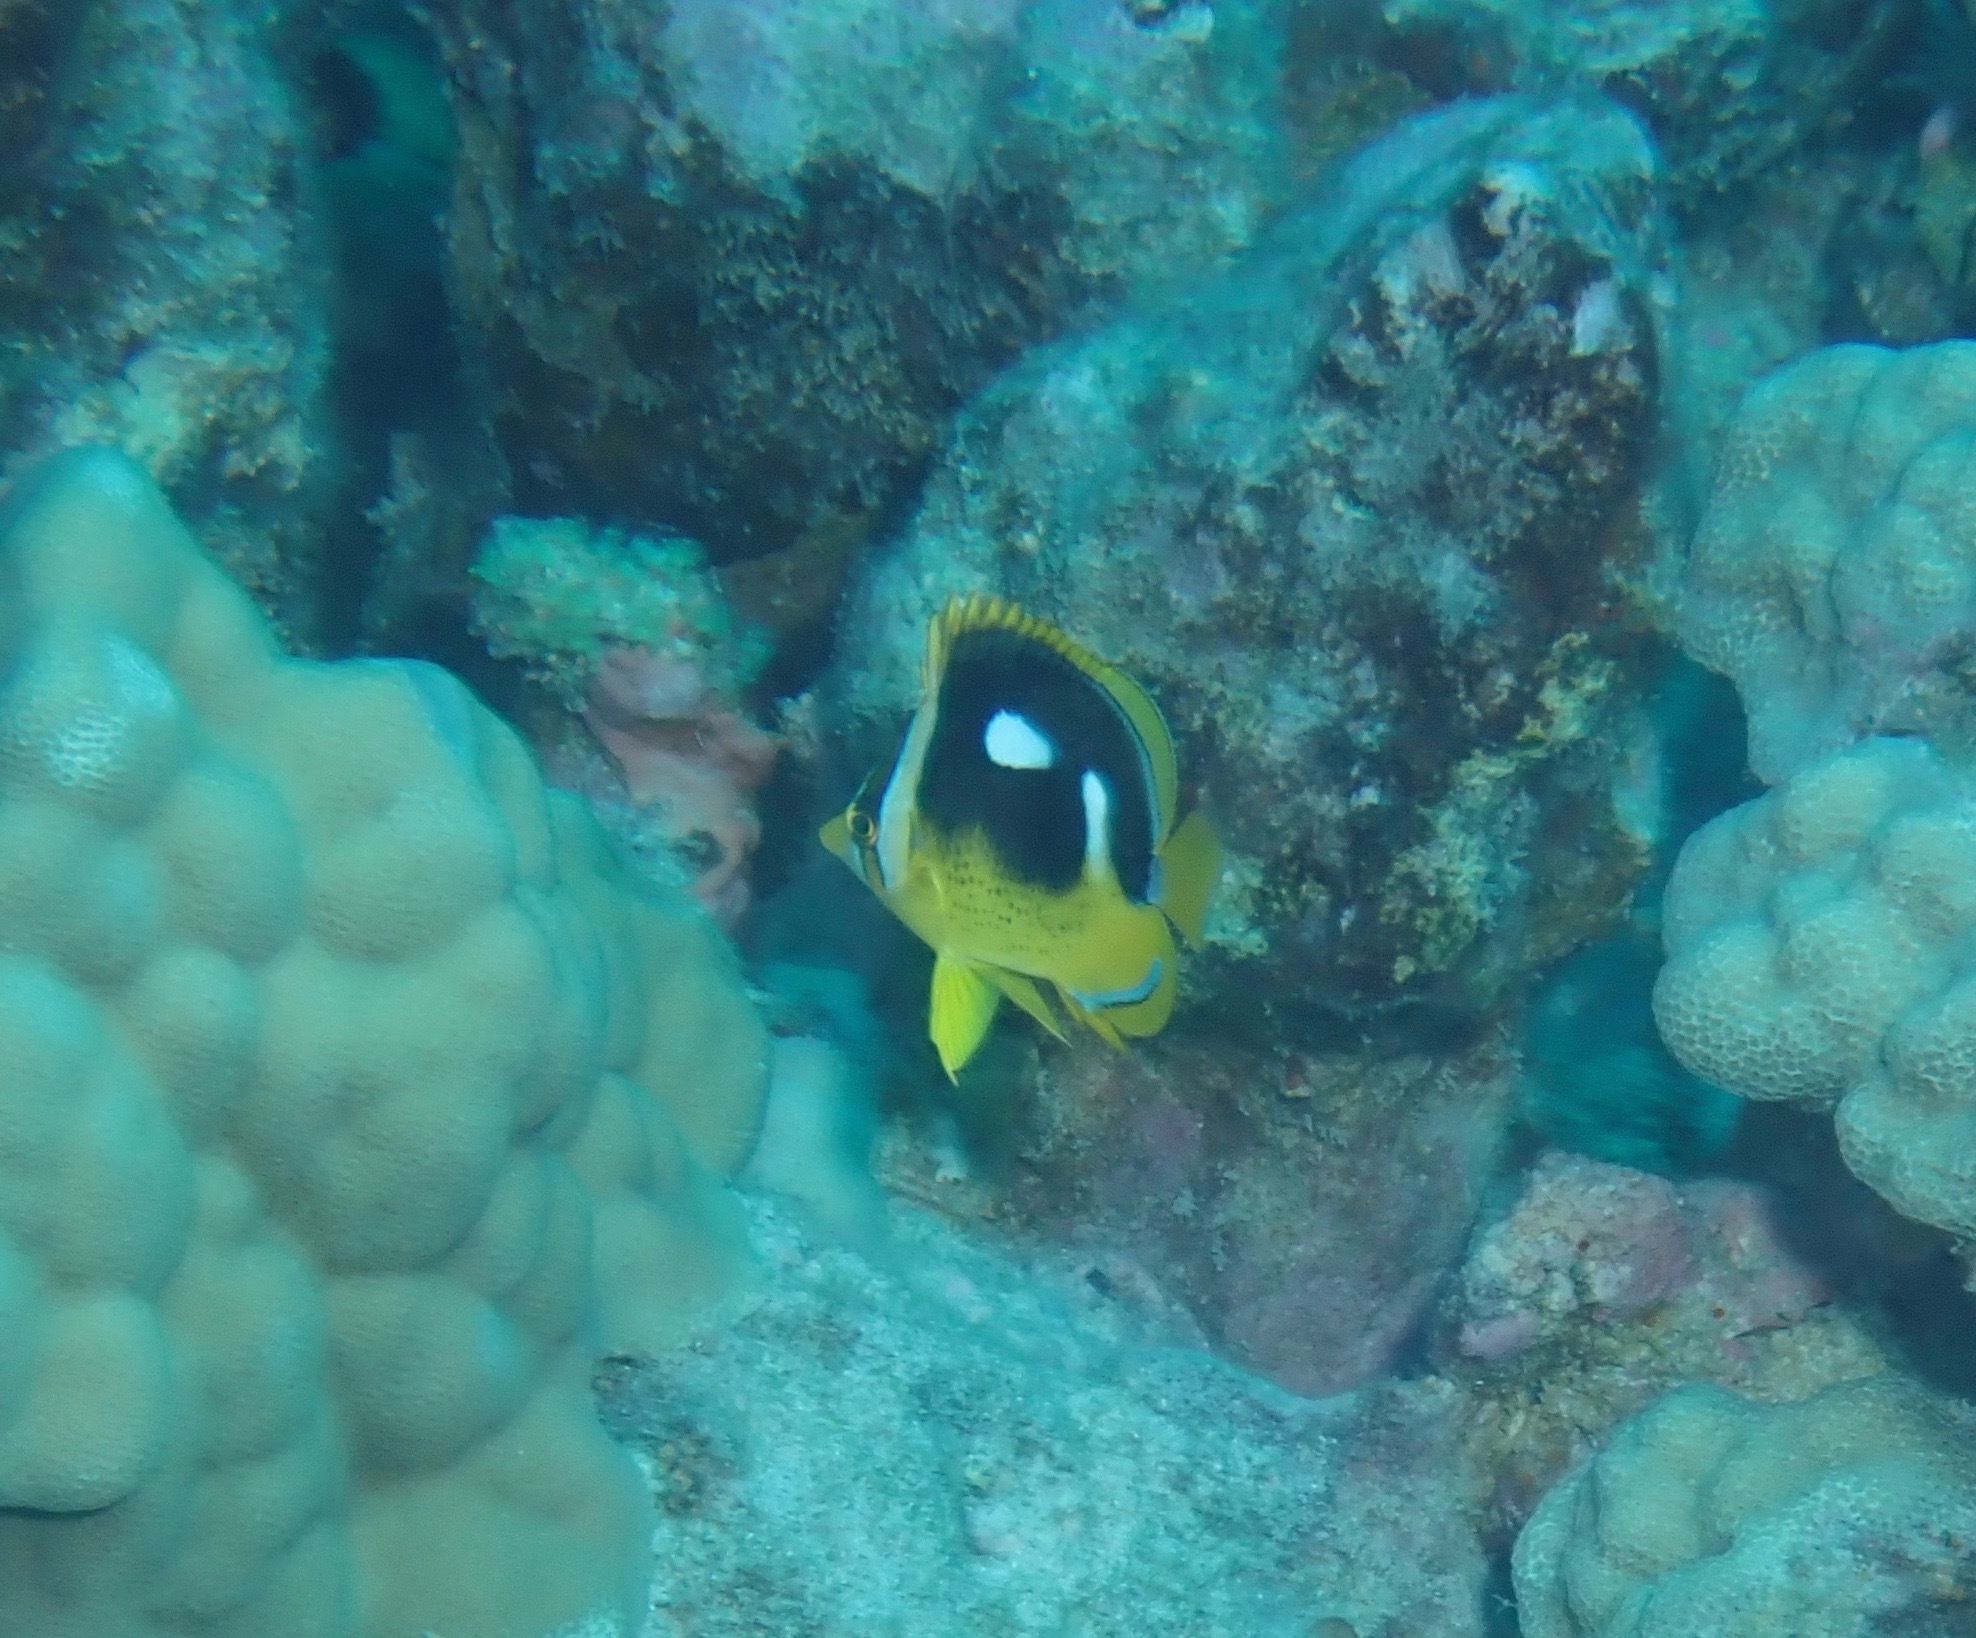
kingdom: Animalia
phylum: Chordata
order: Perciformes
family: Chaetodontidae
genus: Chaetodon
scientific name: Chaetodon quadrimaculatus
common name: Fourspot butterflyfish
